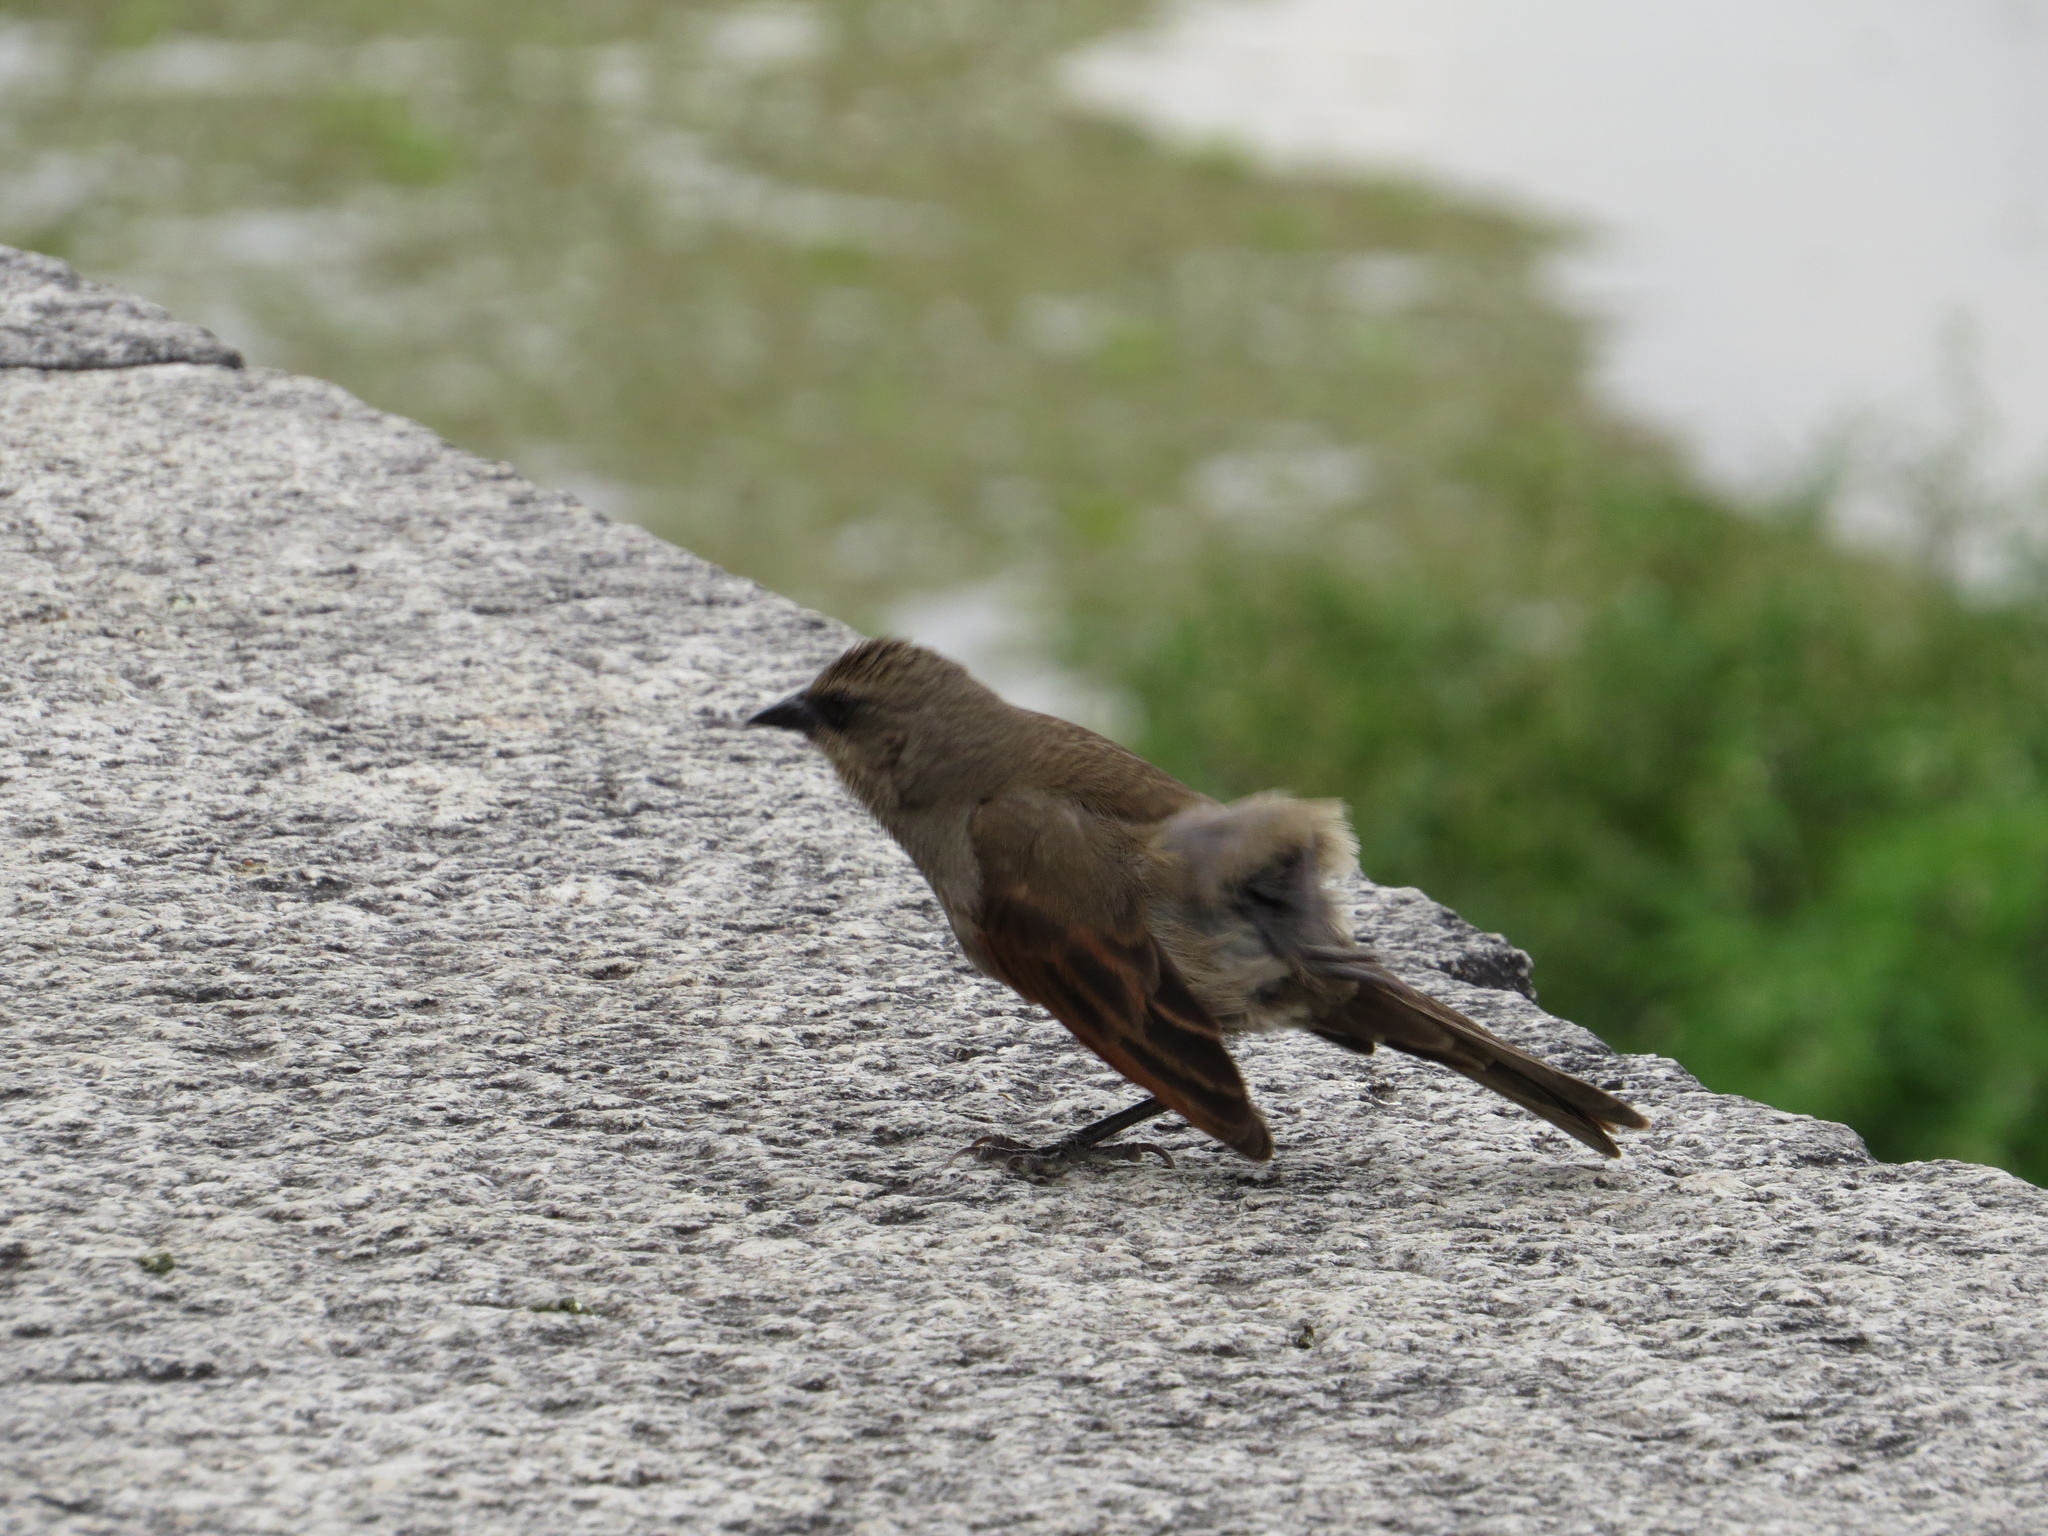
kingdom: Animalia
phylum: Chordata
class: Aves
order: Passeriformes
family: Icteridae
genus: Agelaioides
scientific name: Agelaioides badius
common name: Baywing
